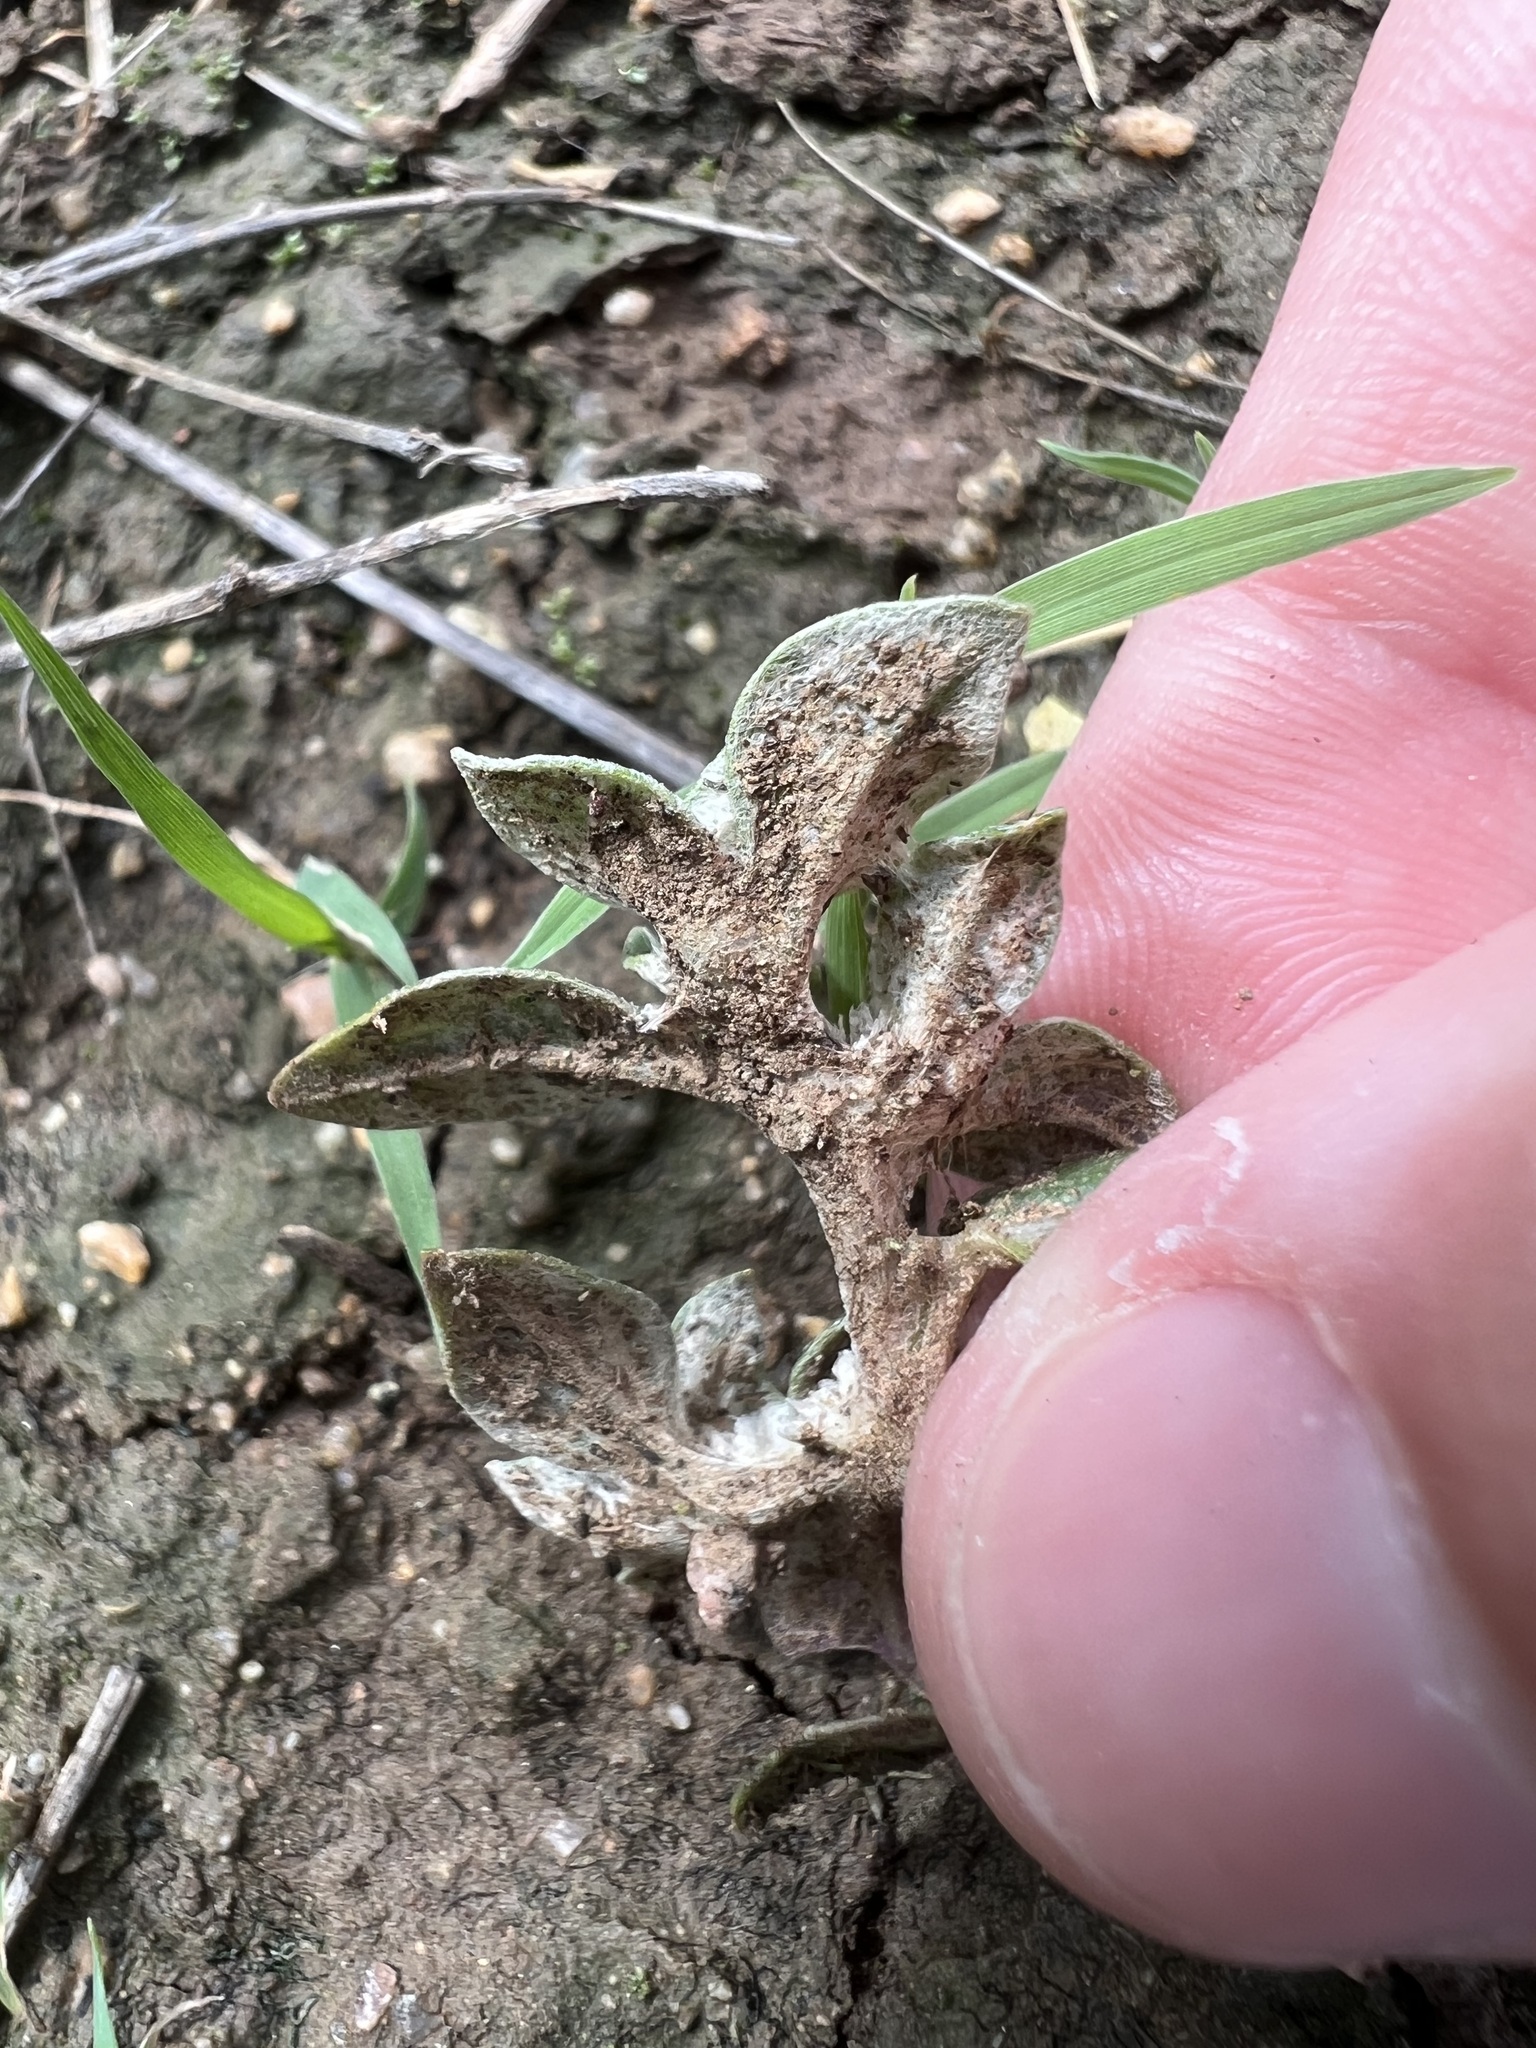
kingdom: Plantae
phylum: Tracheophyta
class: Magnoliopsida
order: Caryophyllales
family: Amaranthaceae
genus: Guilleminea
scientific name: Guilleminea densa
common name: Small matweed
